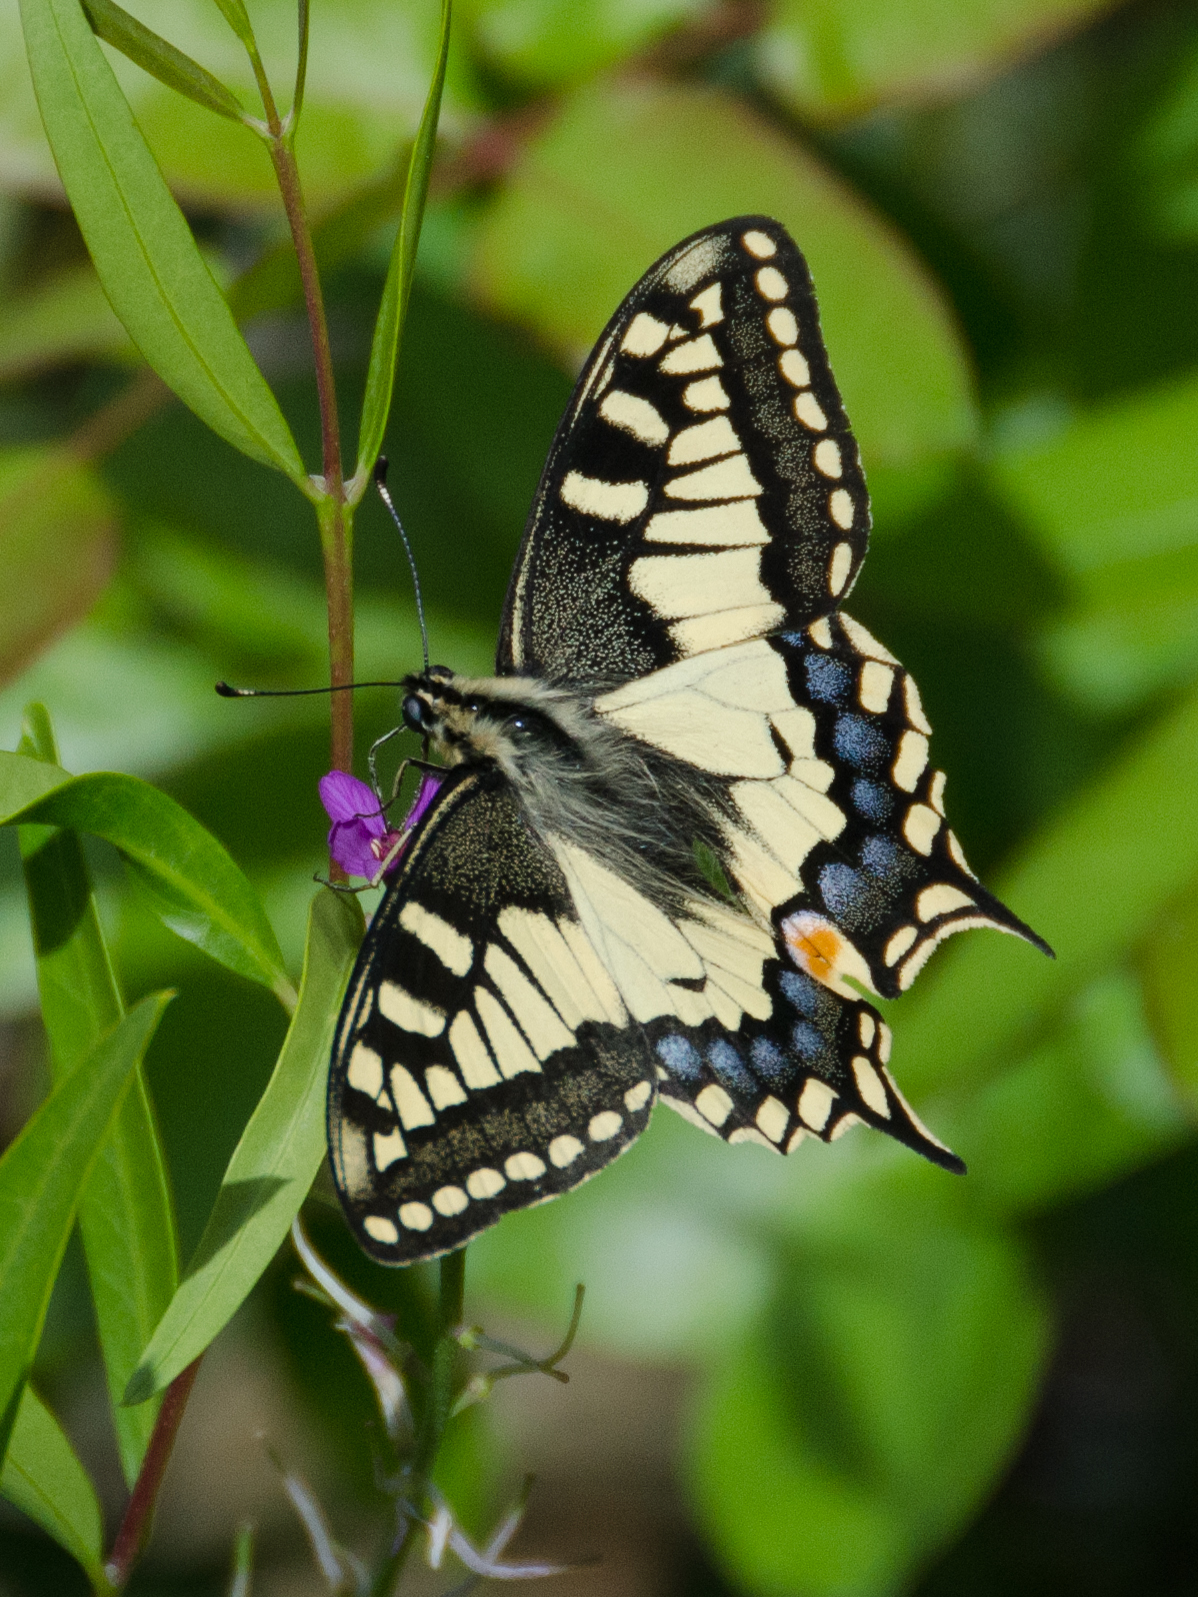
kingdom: Animalia
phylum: Arthropoda
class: Insecta
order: Lepidoptera
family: Papilionidae
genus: Papilio
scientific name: Papilio machaon
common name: Swallowtail
